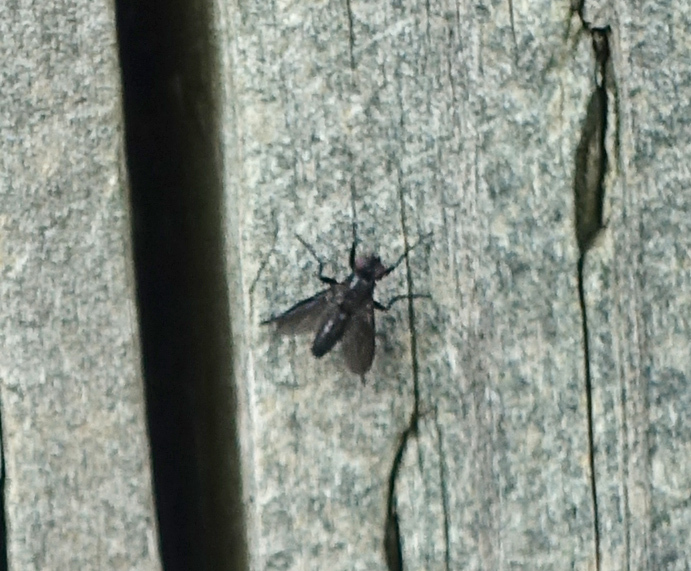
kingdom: Animalia
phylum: Arthropoda
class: Insecta
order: Diptera
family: Calliphoridae
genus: Melanophora
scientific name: Melanophora roralis
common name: Smoky-winged woodlouse-fly
